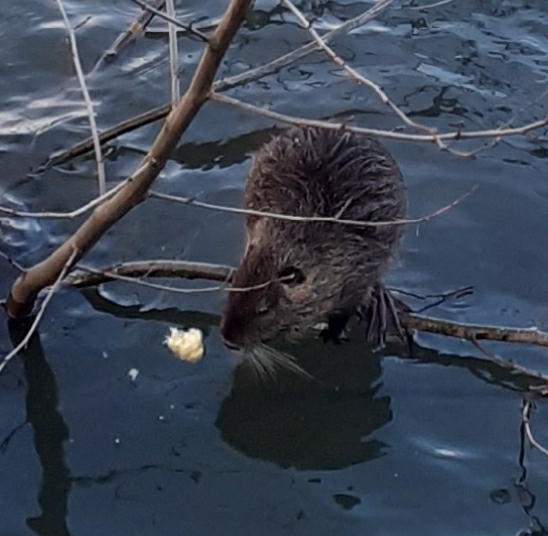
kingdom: Animalia
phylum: Chordata
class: Mammalia
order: Rodentia
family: Myocastoridae
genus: Myocastor
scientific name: Myocastor coypus
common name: Coypu
